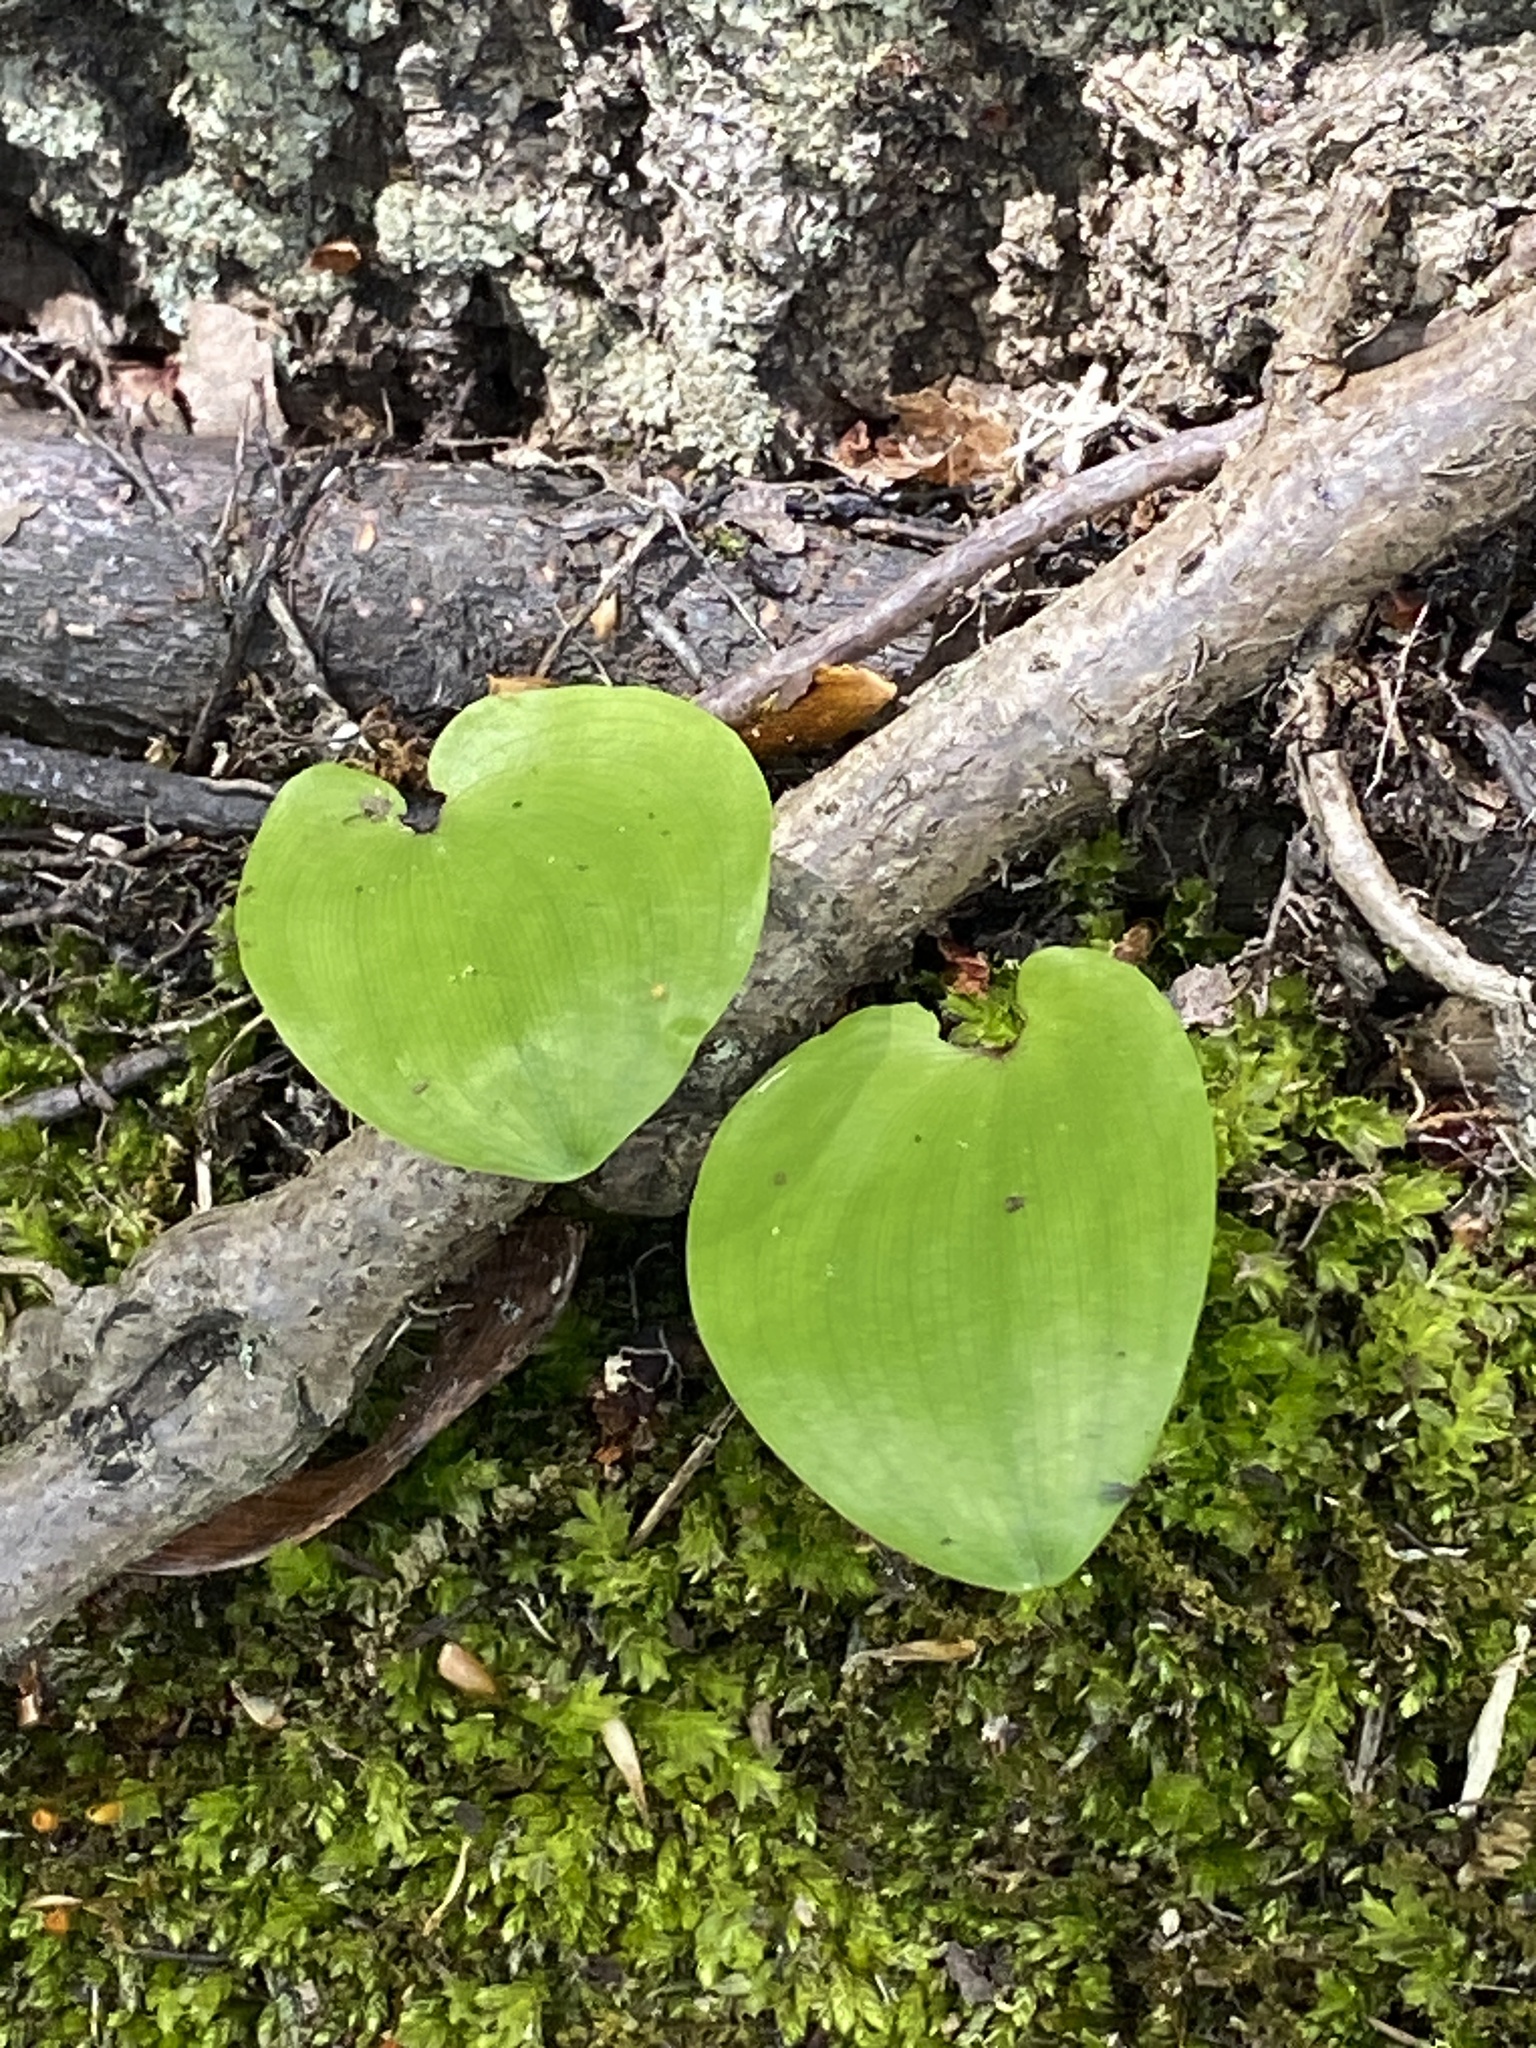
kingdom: Plantae
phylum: Tracheophyta
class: Liliopsida
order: Asparagales
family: Asparagaceae
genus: Maianthemum
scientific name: Maianthemum canadense
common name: False lily-of-the-valley
